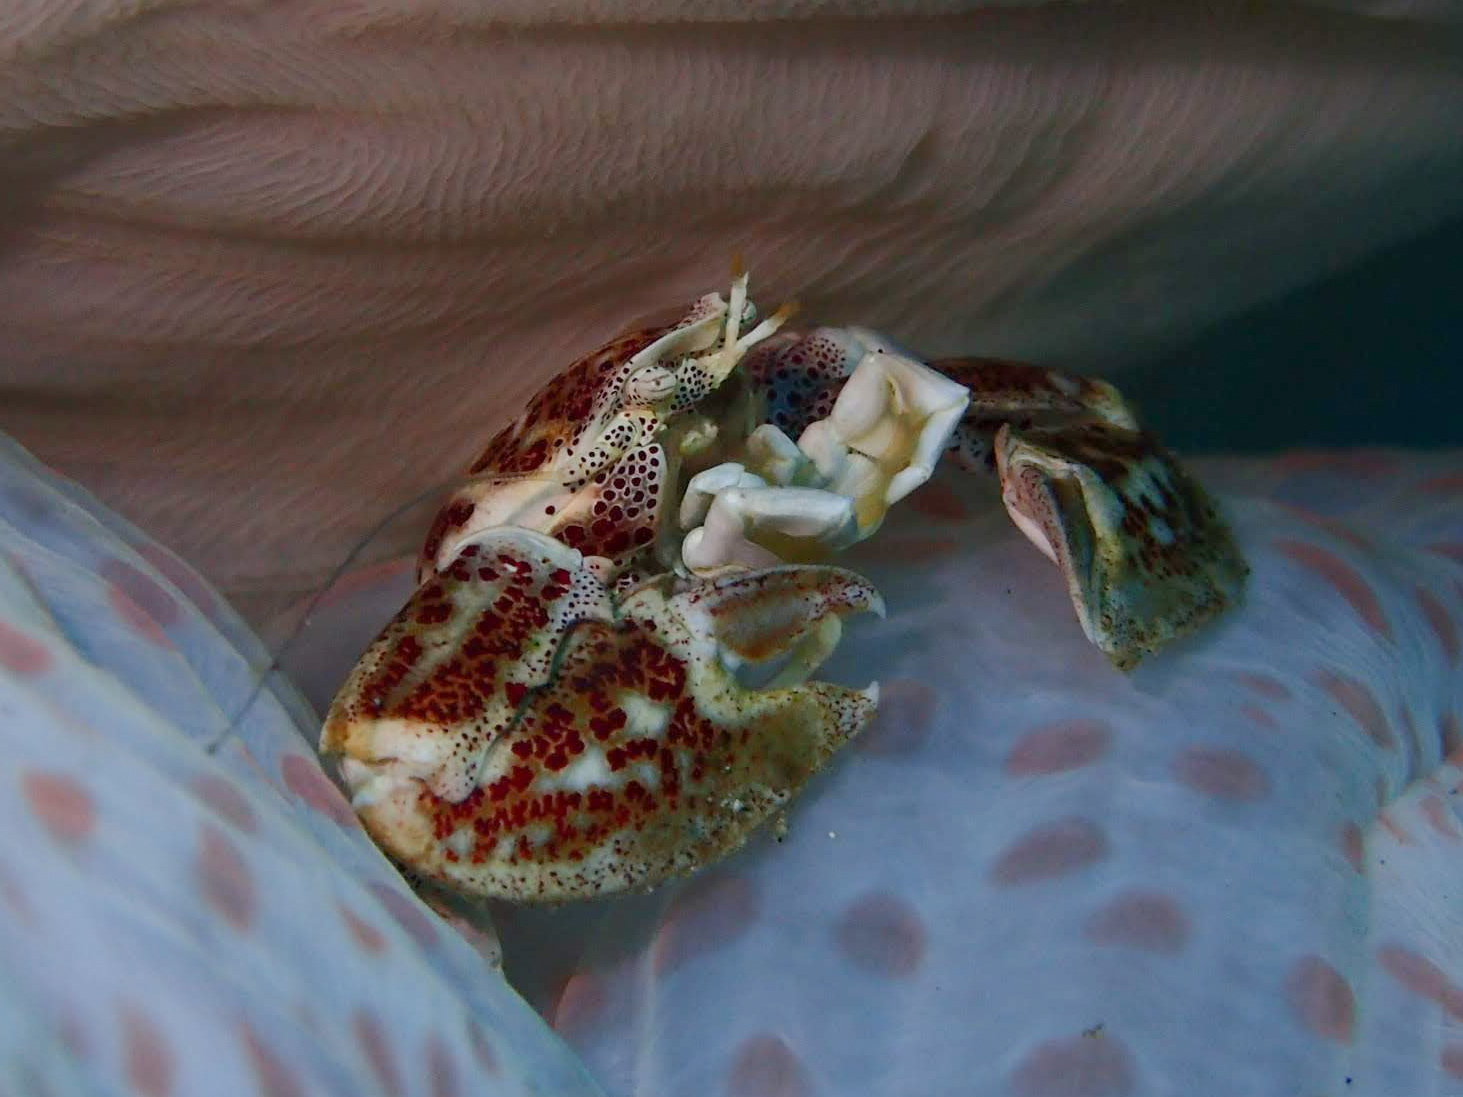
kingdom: Animalia
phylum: Arthropoda
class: Malacostraca
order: Decapoda
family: Porcellanidae
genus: Neopetrolisthes
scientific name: Neopetrolisthes maculatus
